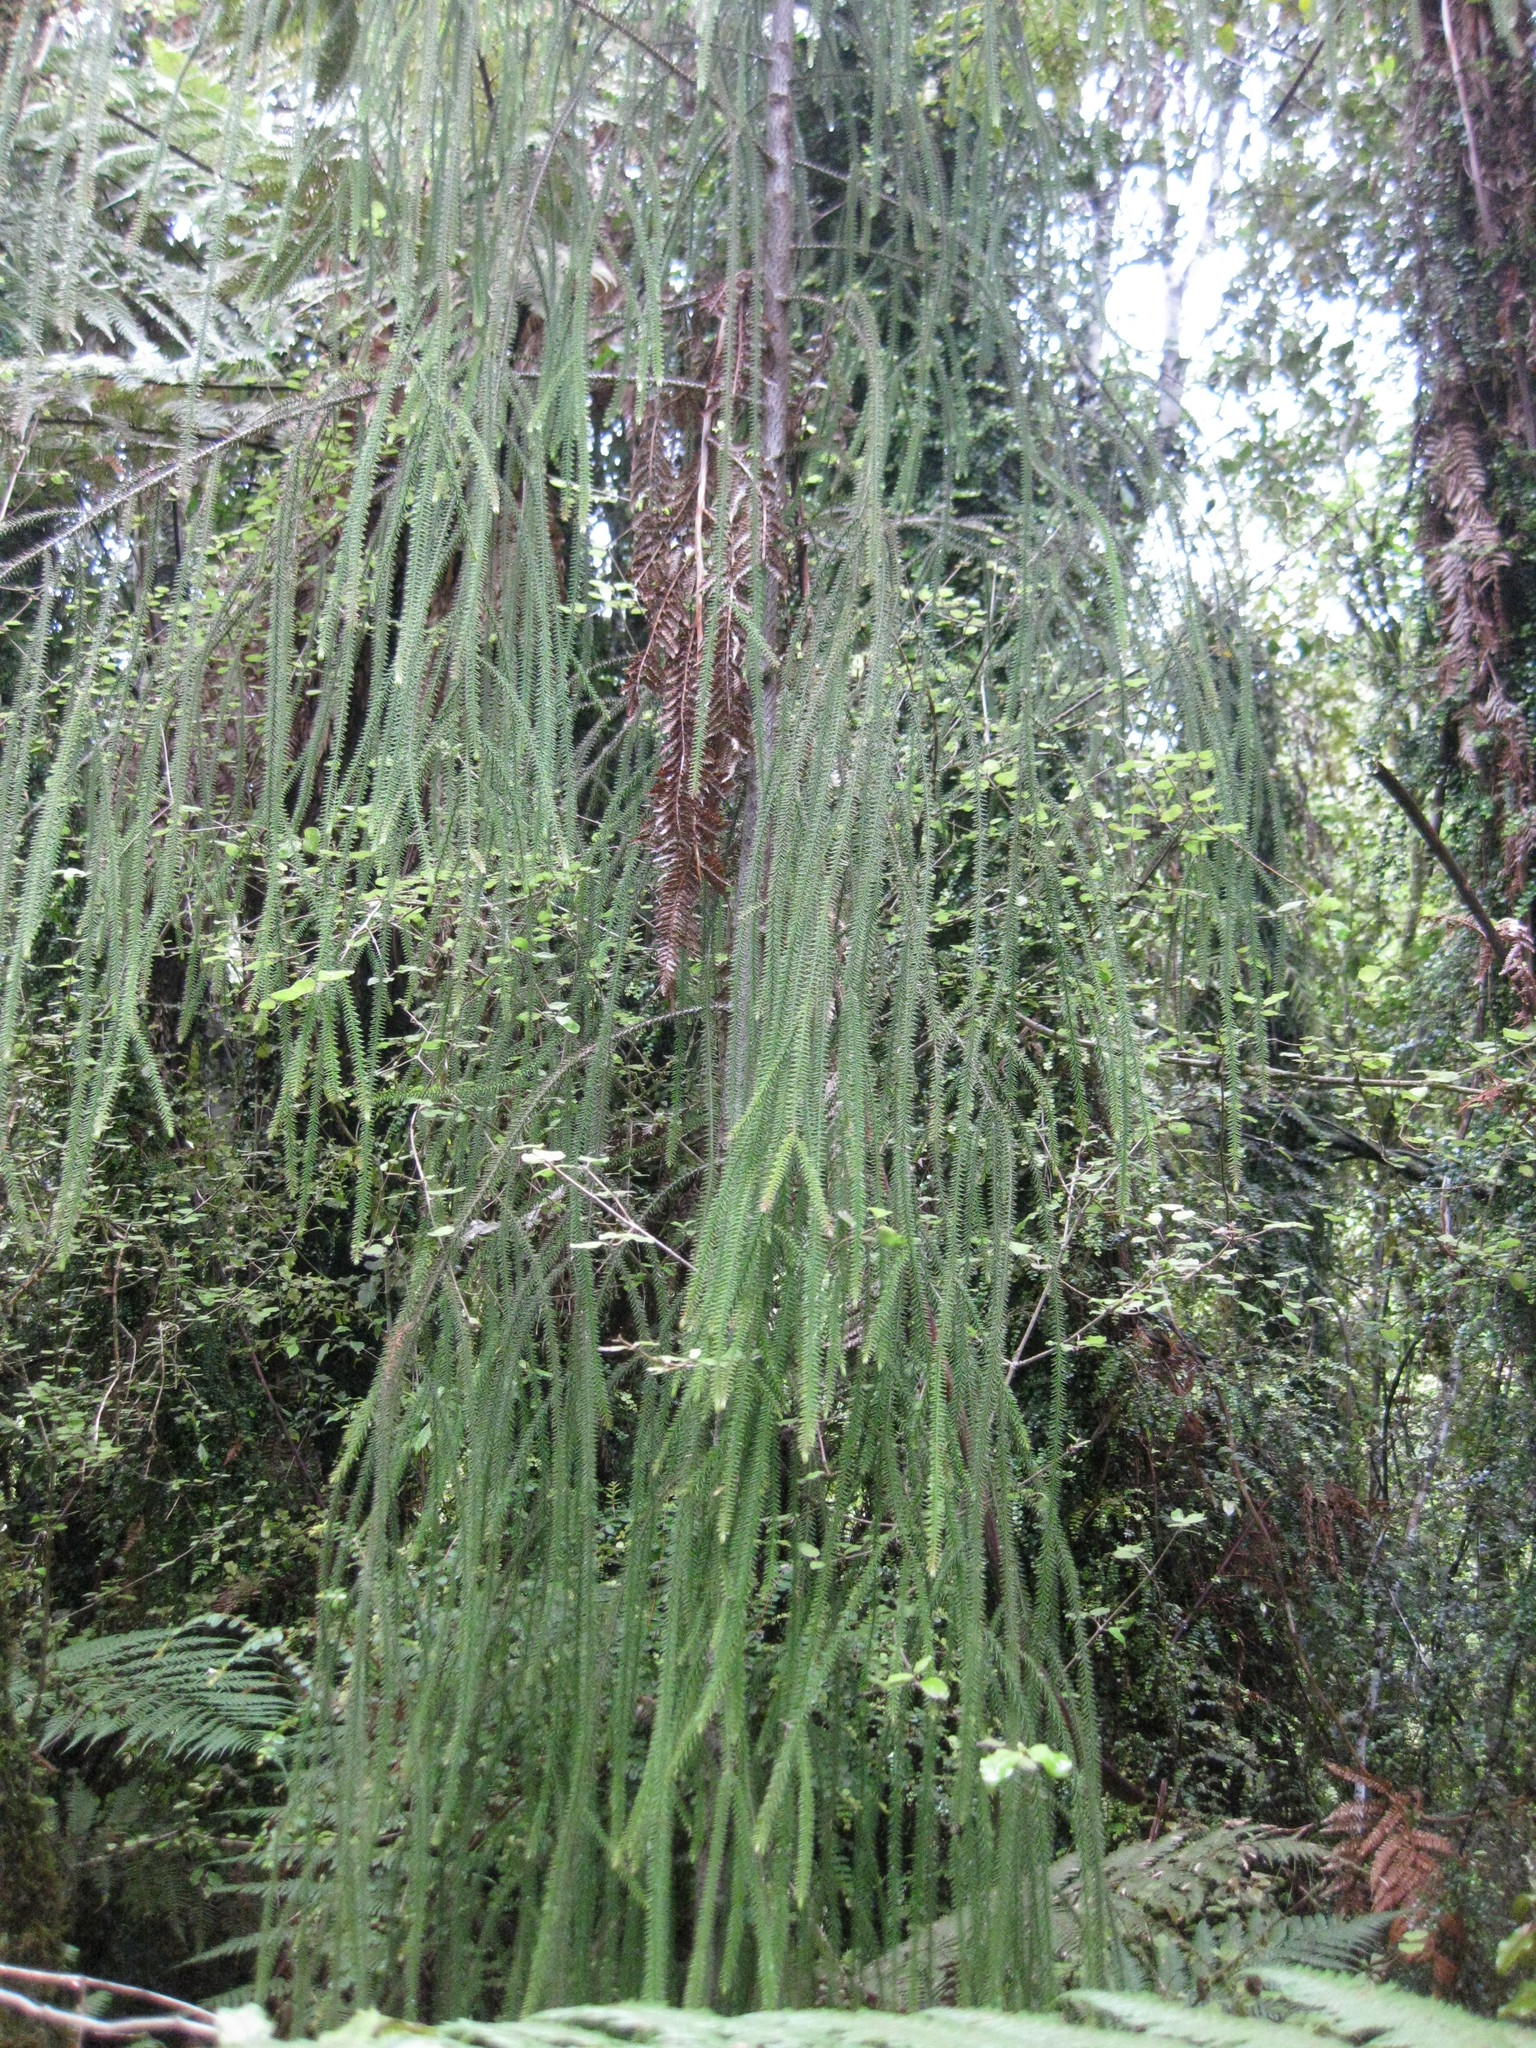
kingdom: Plantae
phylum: Tracheophyta
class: Pinopsida
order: Pinales
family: Podocarpaceae
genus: Dacrydium
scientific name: Dacrydium cupressinum
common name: Red pine
